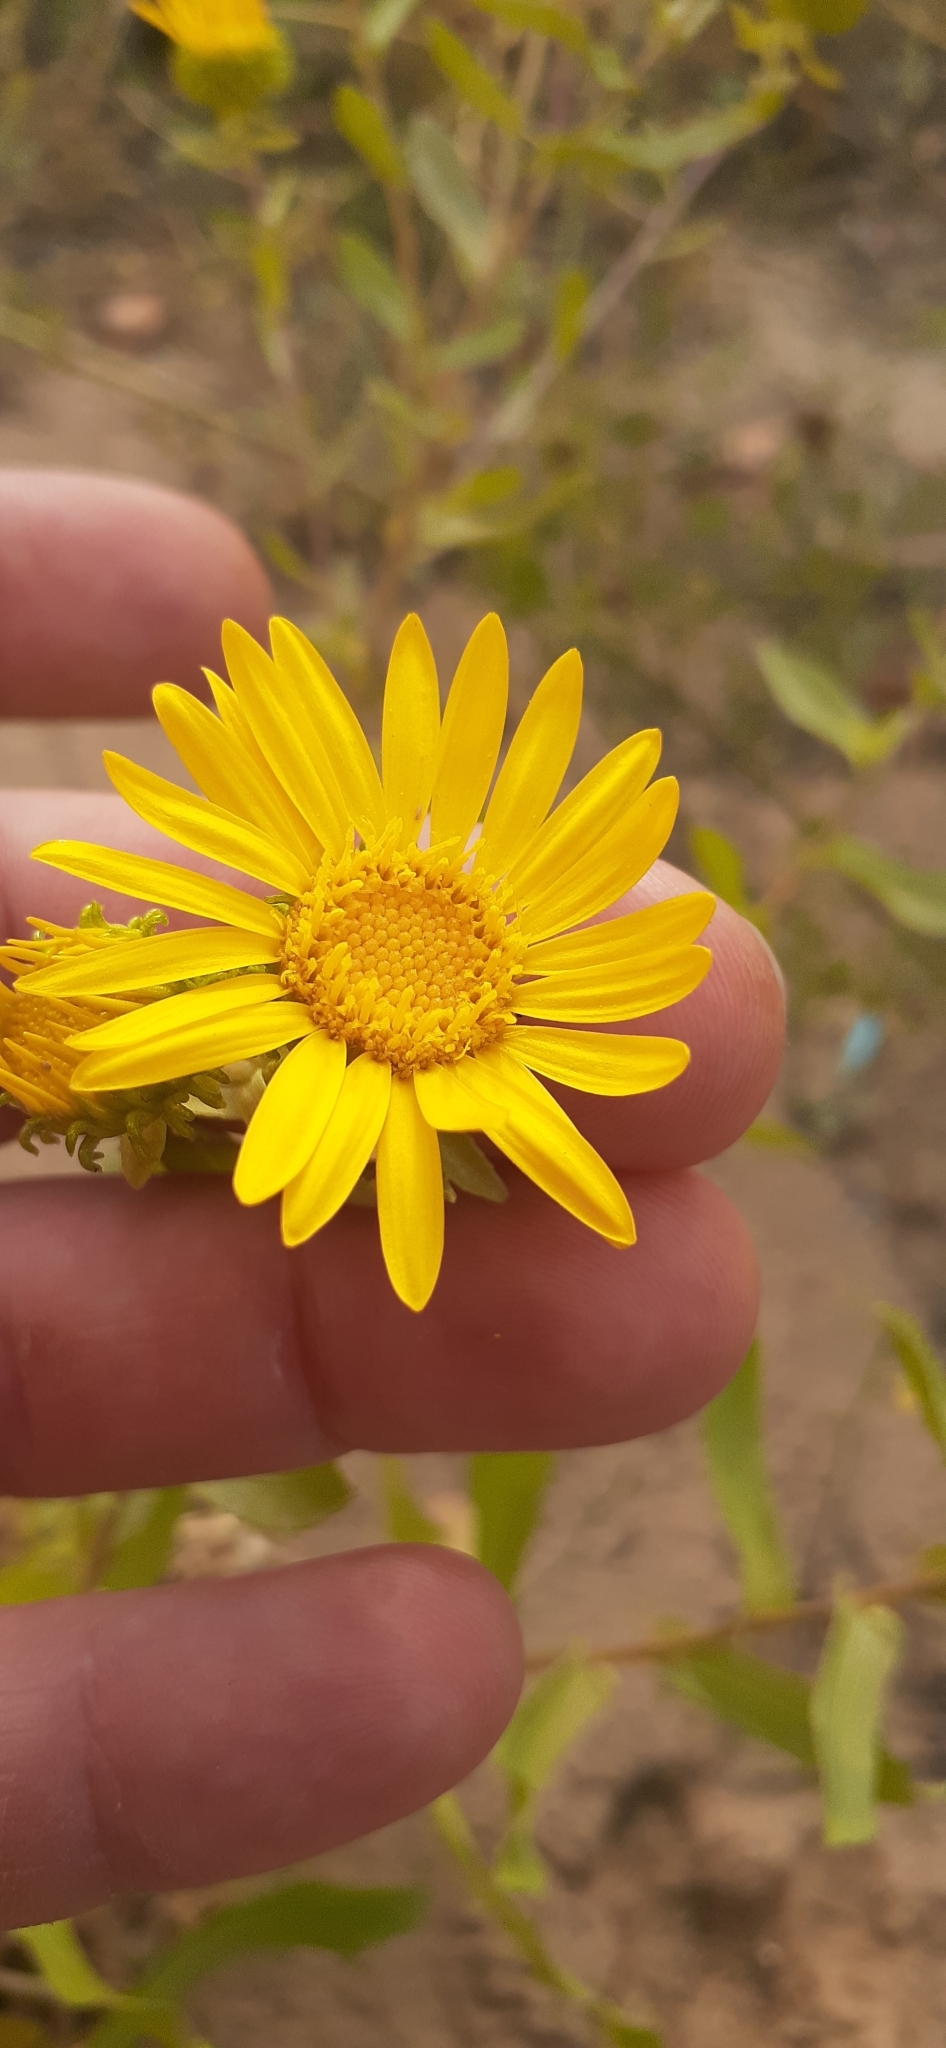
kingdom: Plantae
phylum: Tracheophyta
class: Magnoliopsida
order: Asterales
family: Asteraceae
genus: Grindelia
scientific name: Grindelia squarrosa
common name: Curly-cup gumweed
